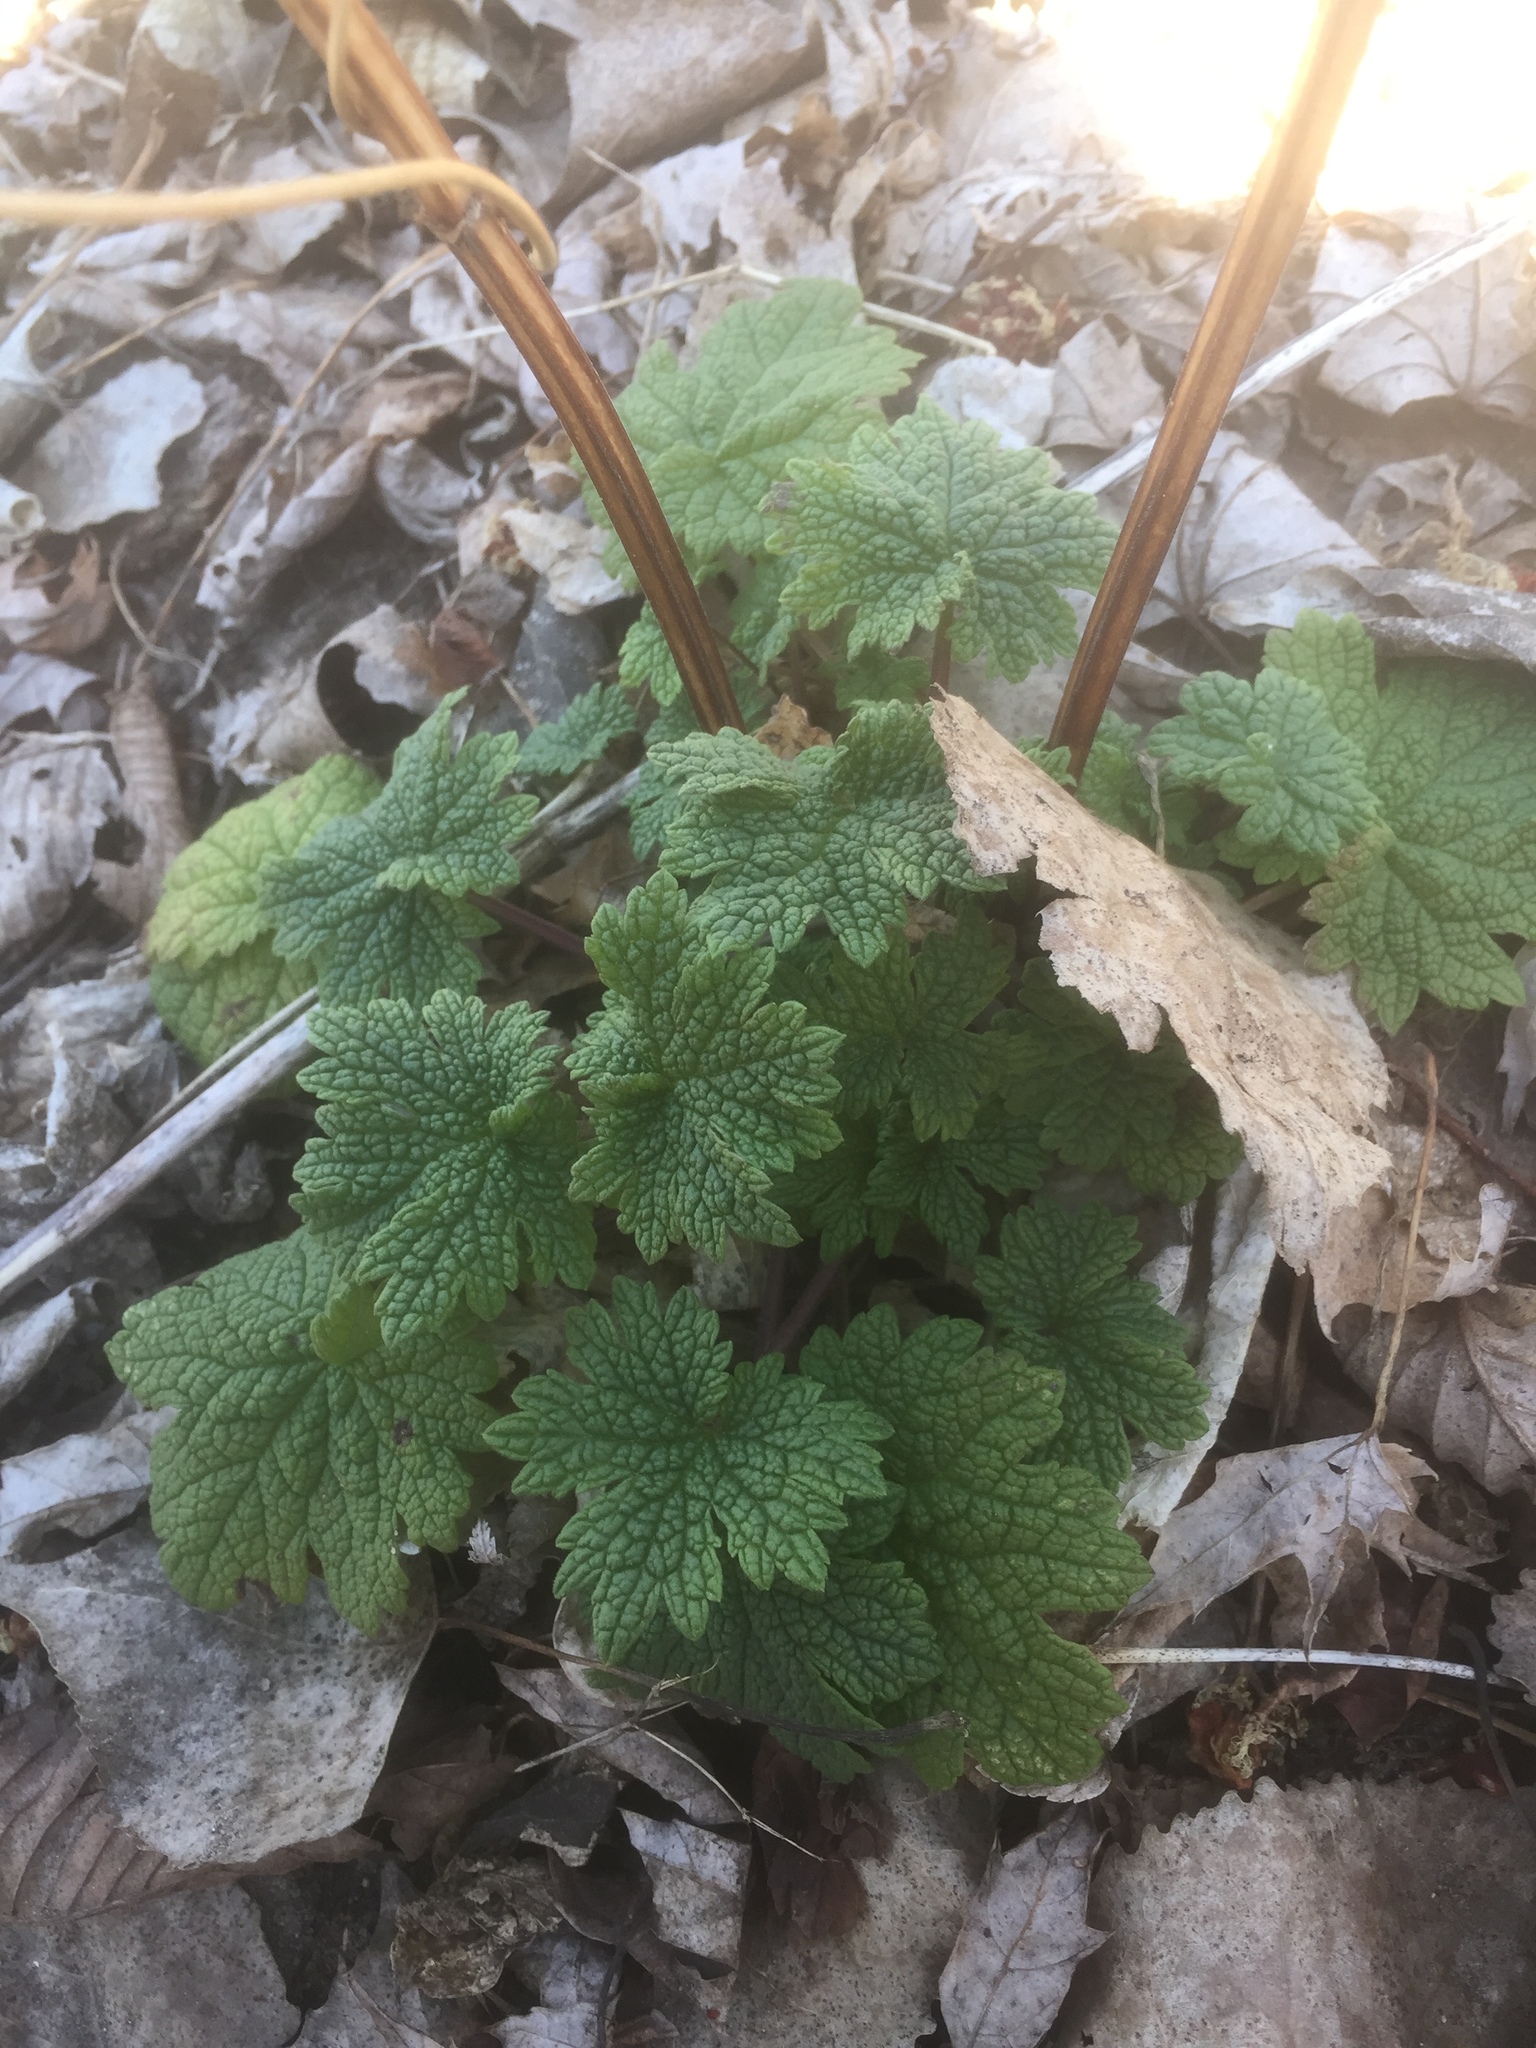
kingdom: Plantae
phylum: Tracheophyta
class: Magnoliopsida
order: Lamiales
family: Lamiaceae
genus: Leonurus
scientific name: Leonurus cardiaca
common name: Motherwort
